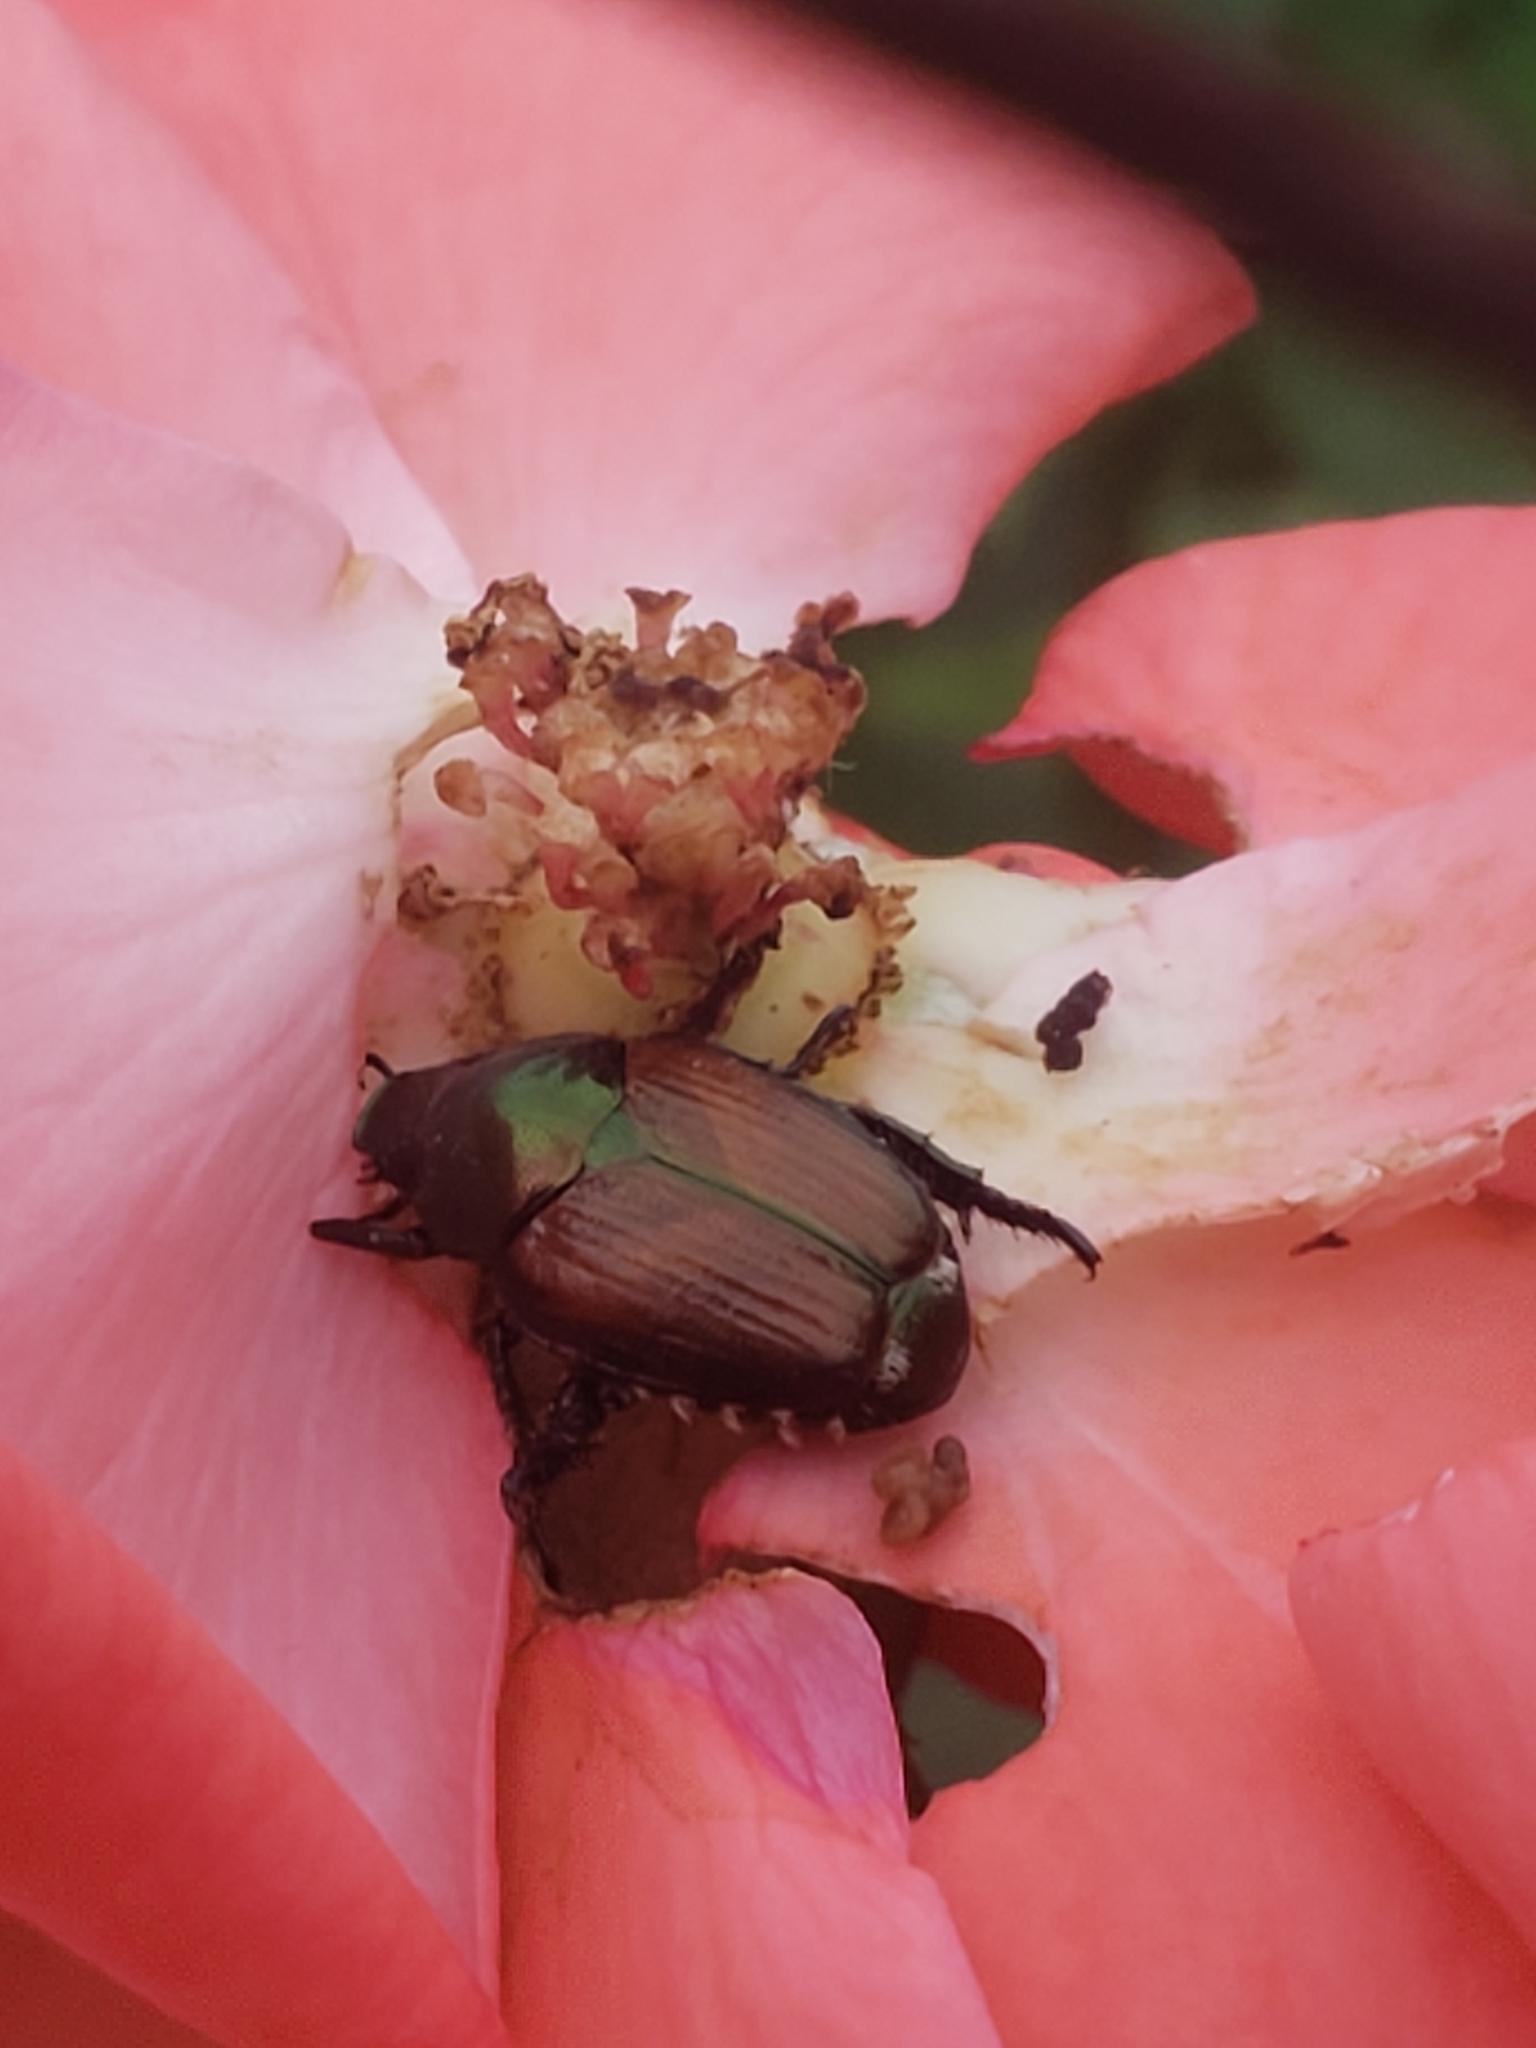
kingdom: Animalia
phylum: Arthropoda
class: Insecta
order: Coleoptera
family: Scarabaeidae
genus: Popillia
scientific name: Popillia japonica
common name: Japanese beetle
